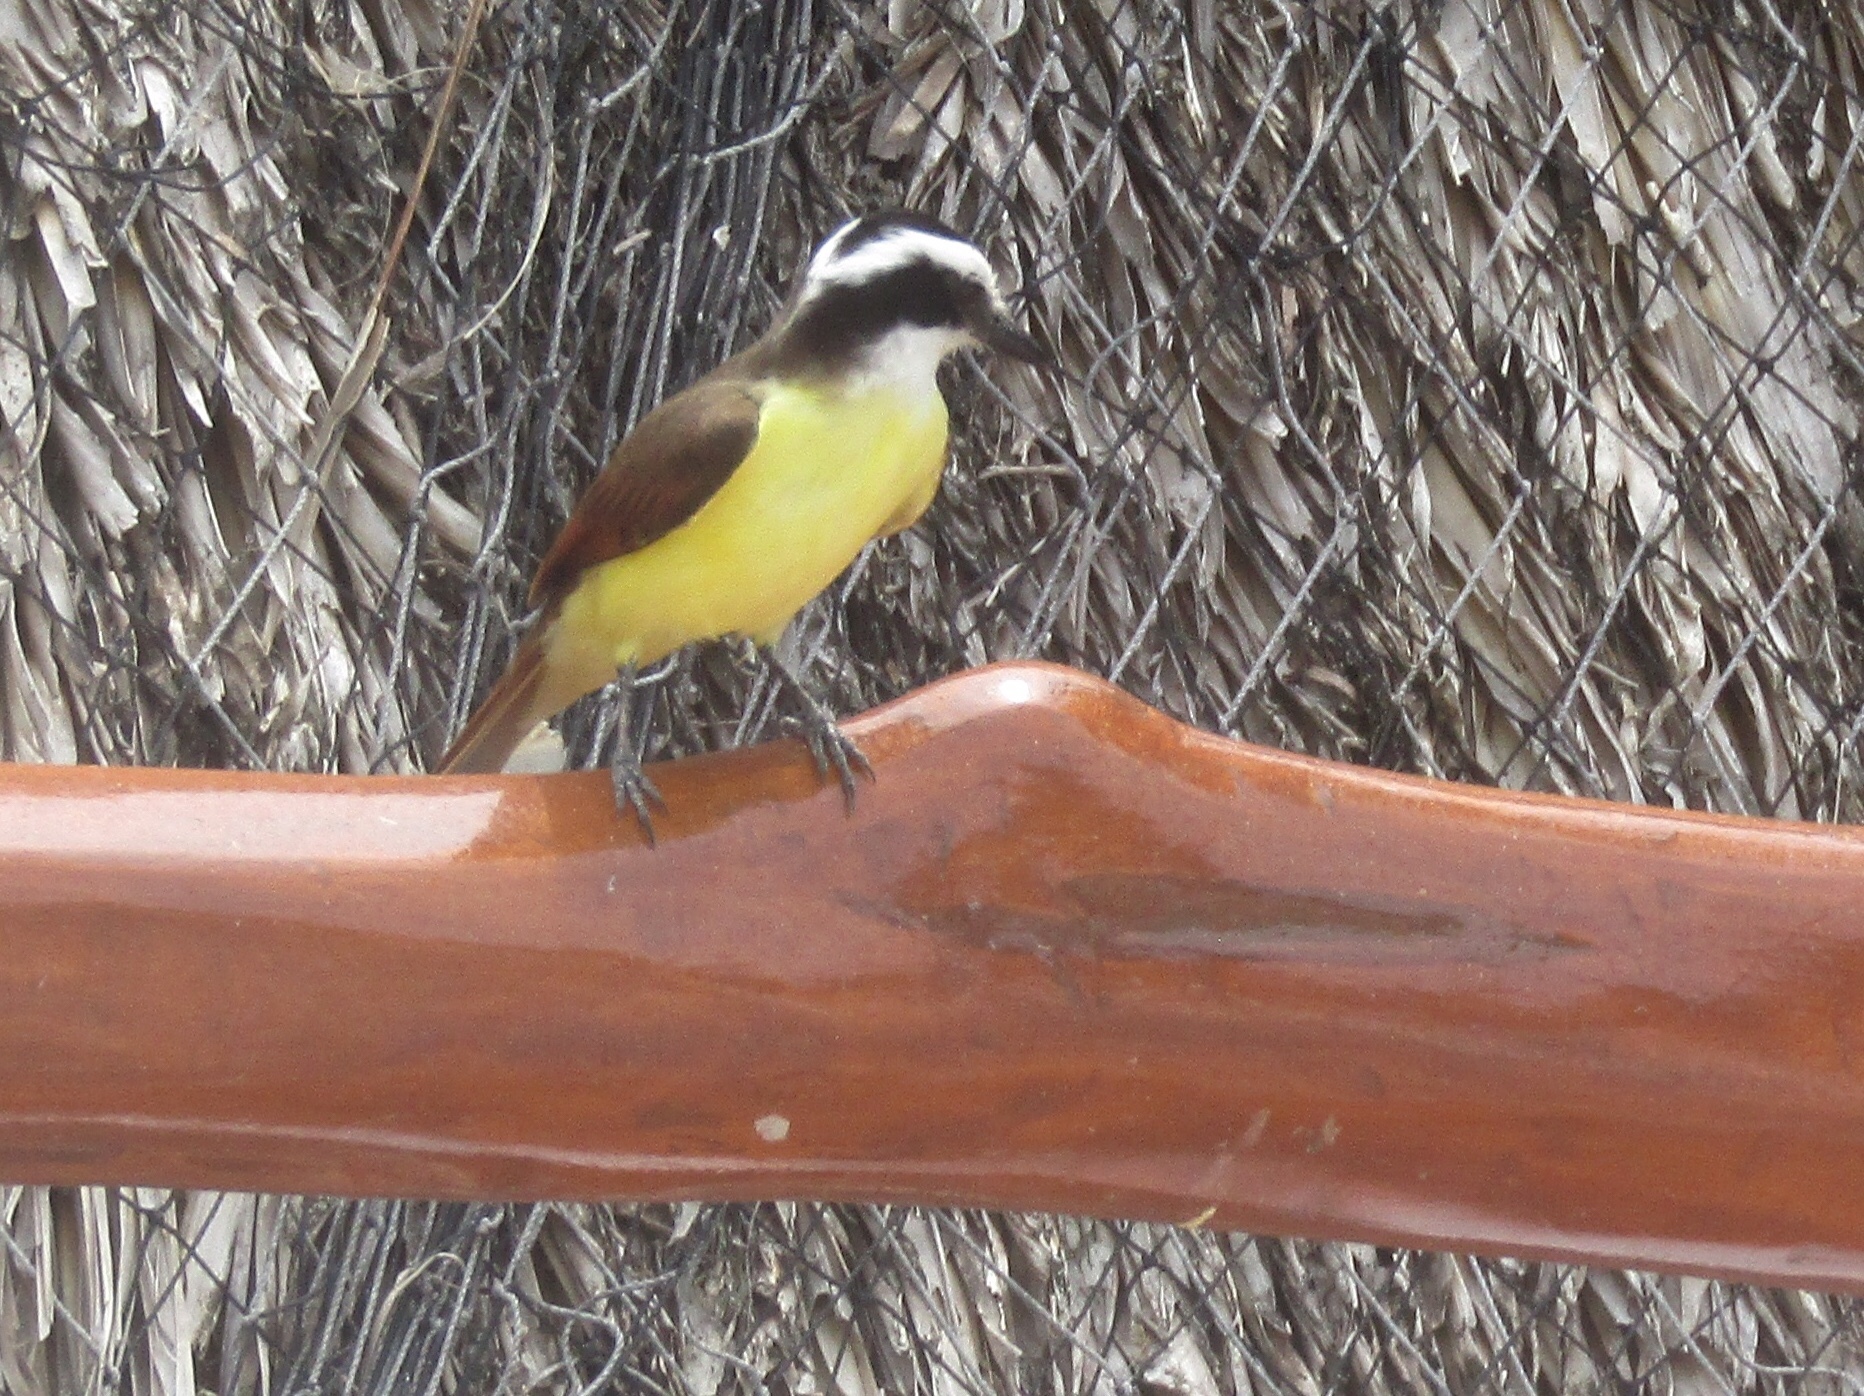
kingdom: Animalia
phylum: Chordata
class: Aves
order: Passeriformes
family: Tyrannidae
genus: Pitangus
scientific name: Pitangus sulphuratus
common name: Great kiskadee
